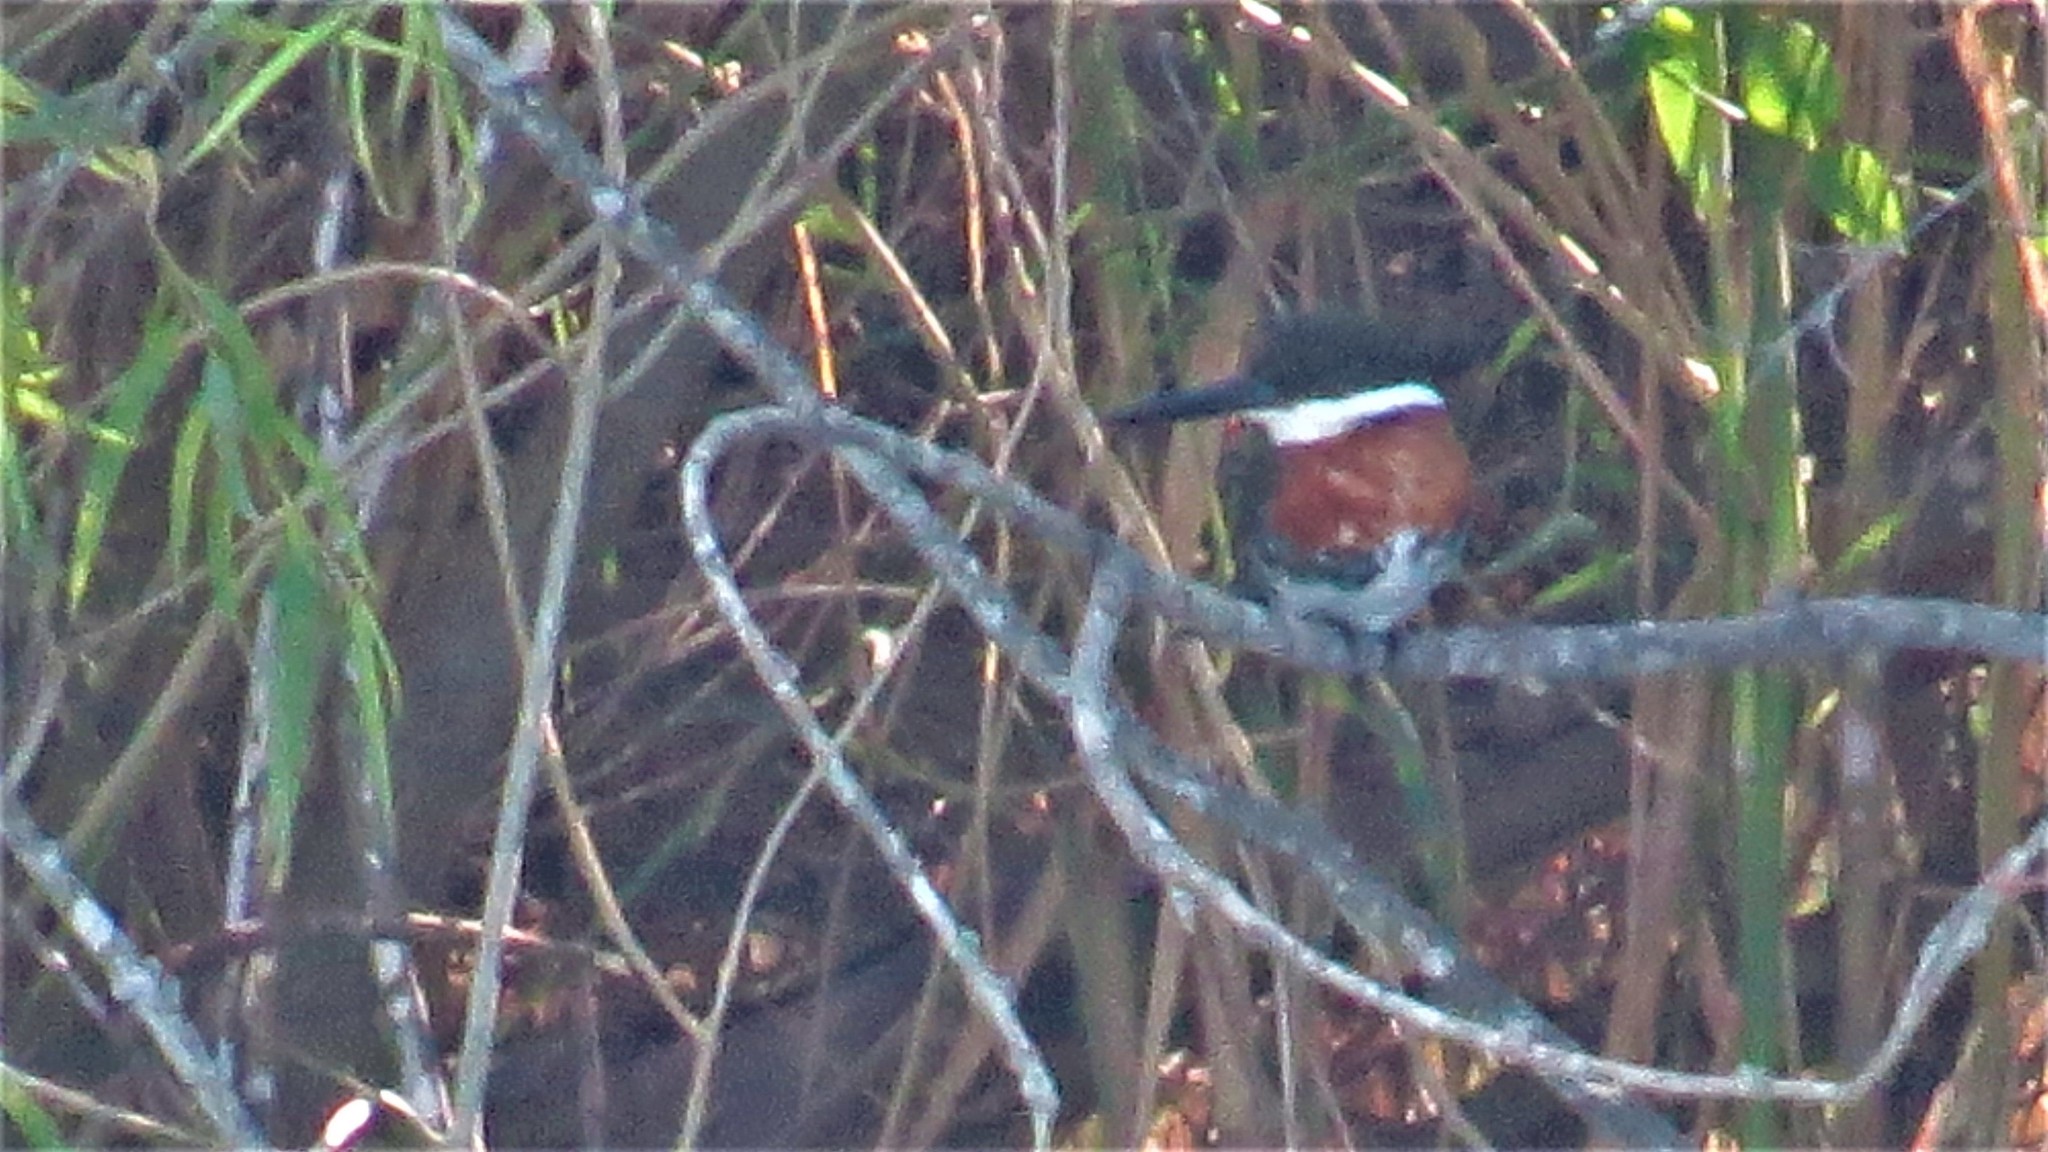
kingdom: Animalia
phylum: Chordata
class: Aves
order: Coraciiformes
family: Alcedinidae
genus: Chloroceryle
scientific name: Chloroceryle americana
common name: Green kingfisher
